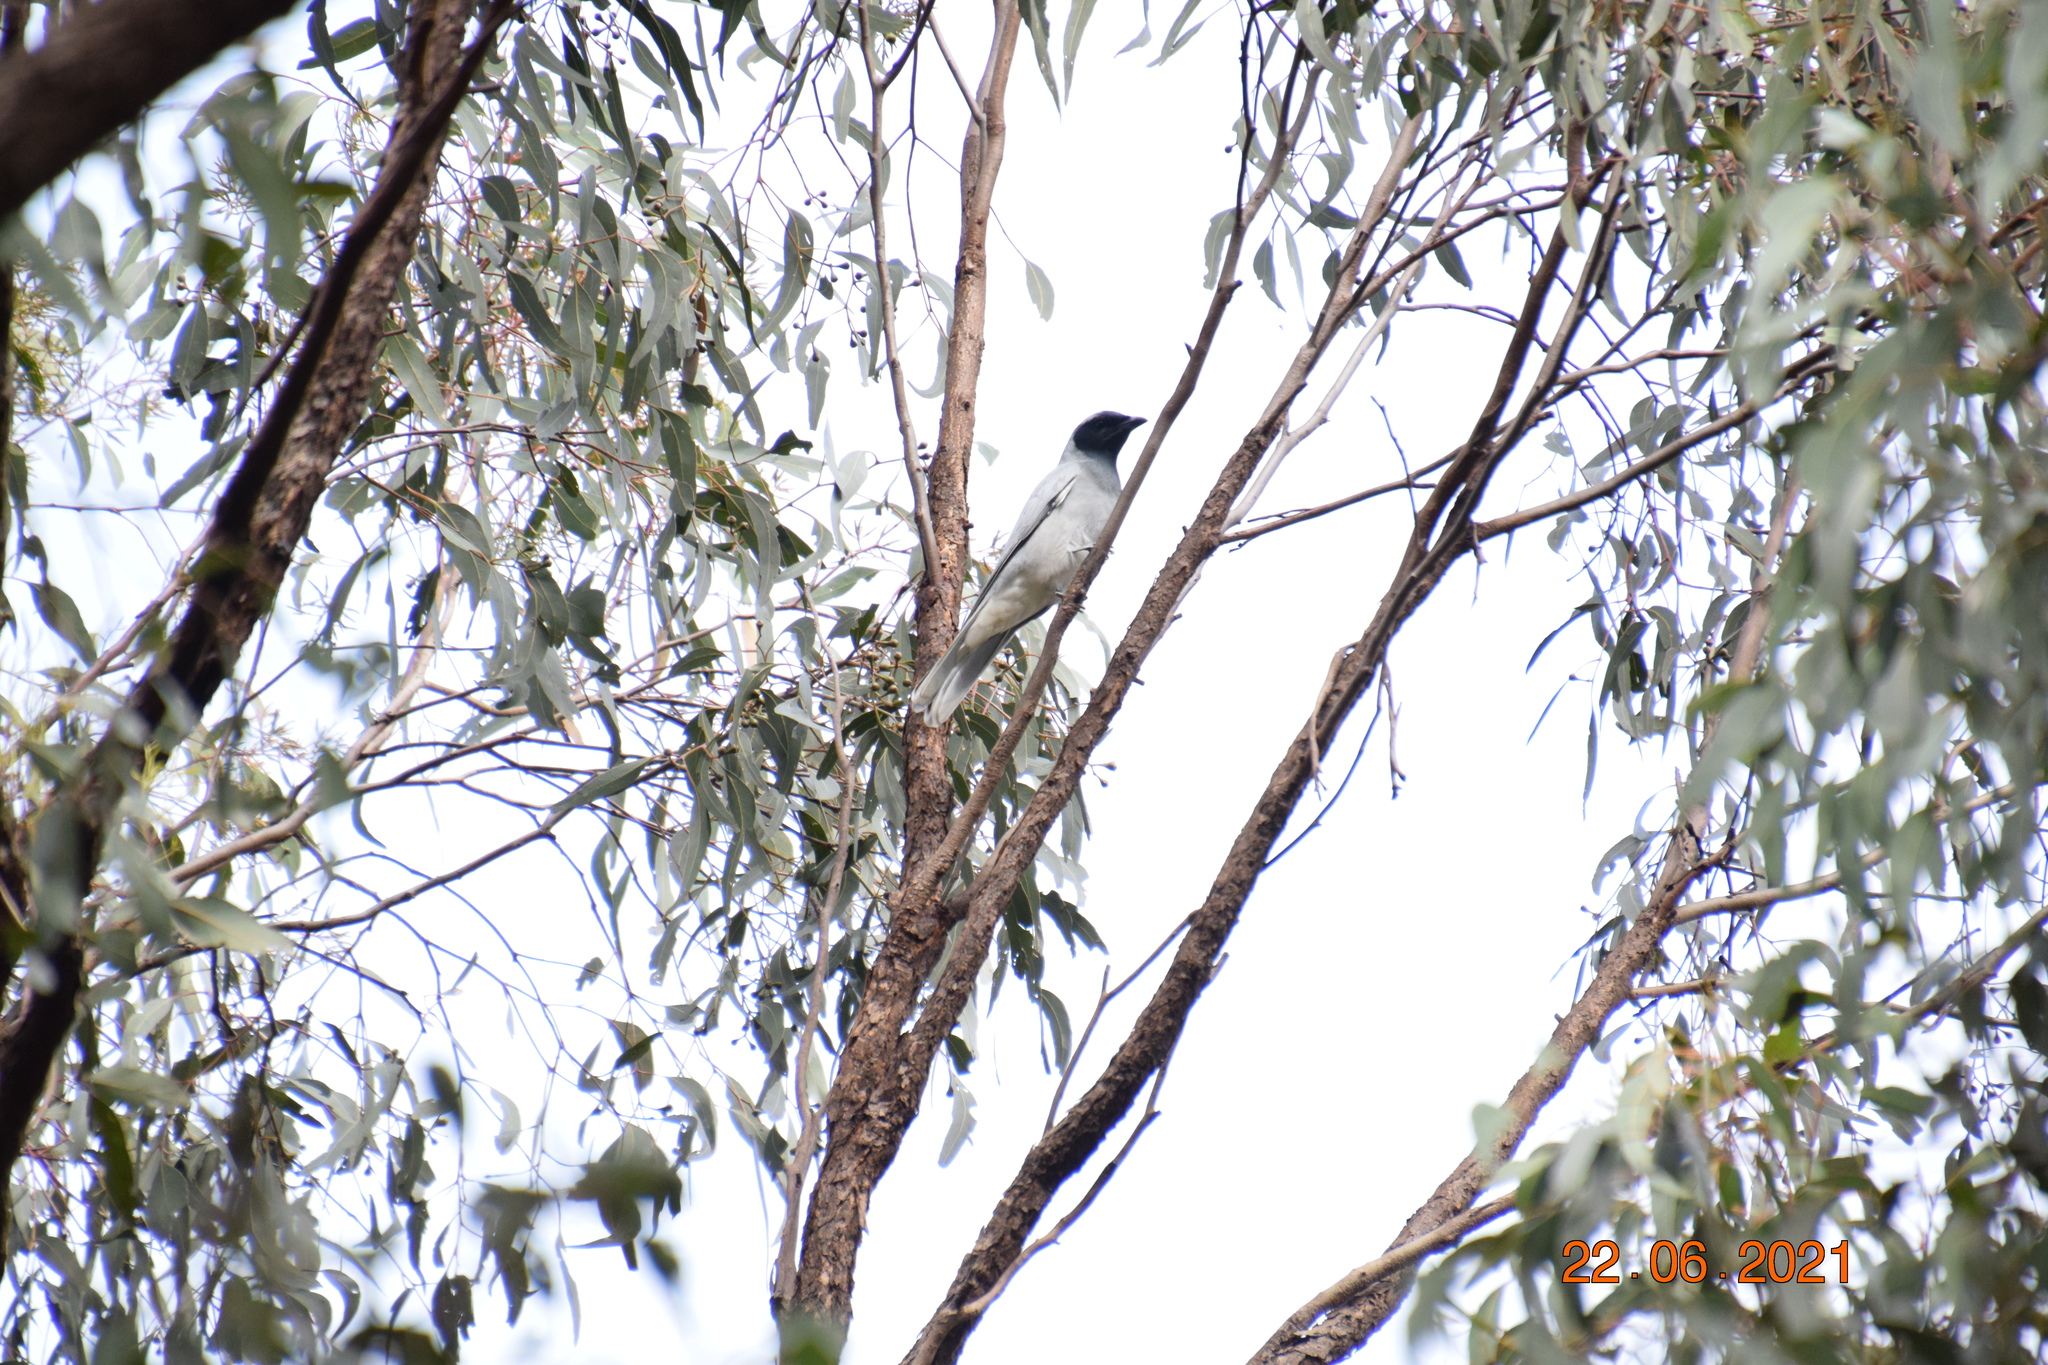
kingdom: Animalia
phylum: Chordata
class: Aves
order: Passeriformes
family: Campephagidae
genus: Coracina
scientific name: Coracina novaehollandiae
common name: Black-faced cuckooshrike
